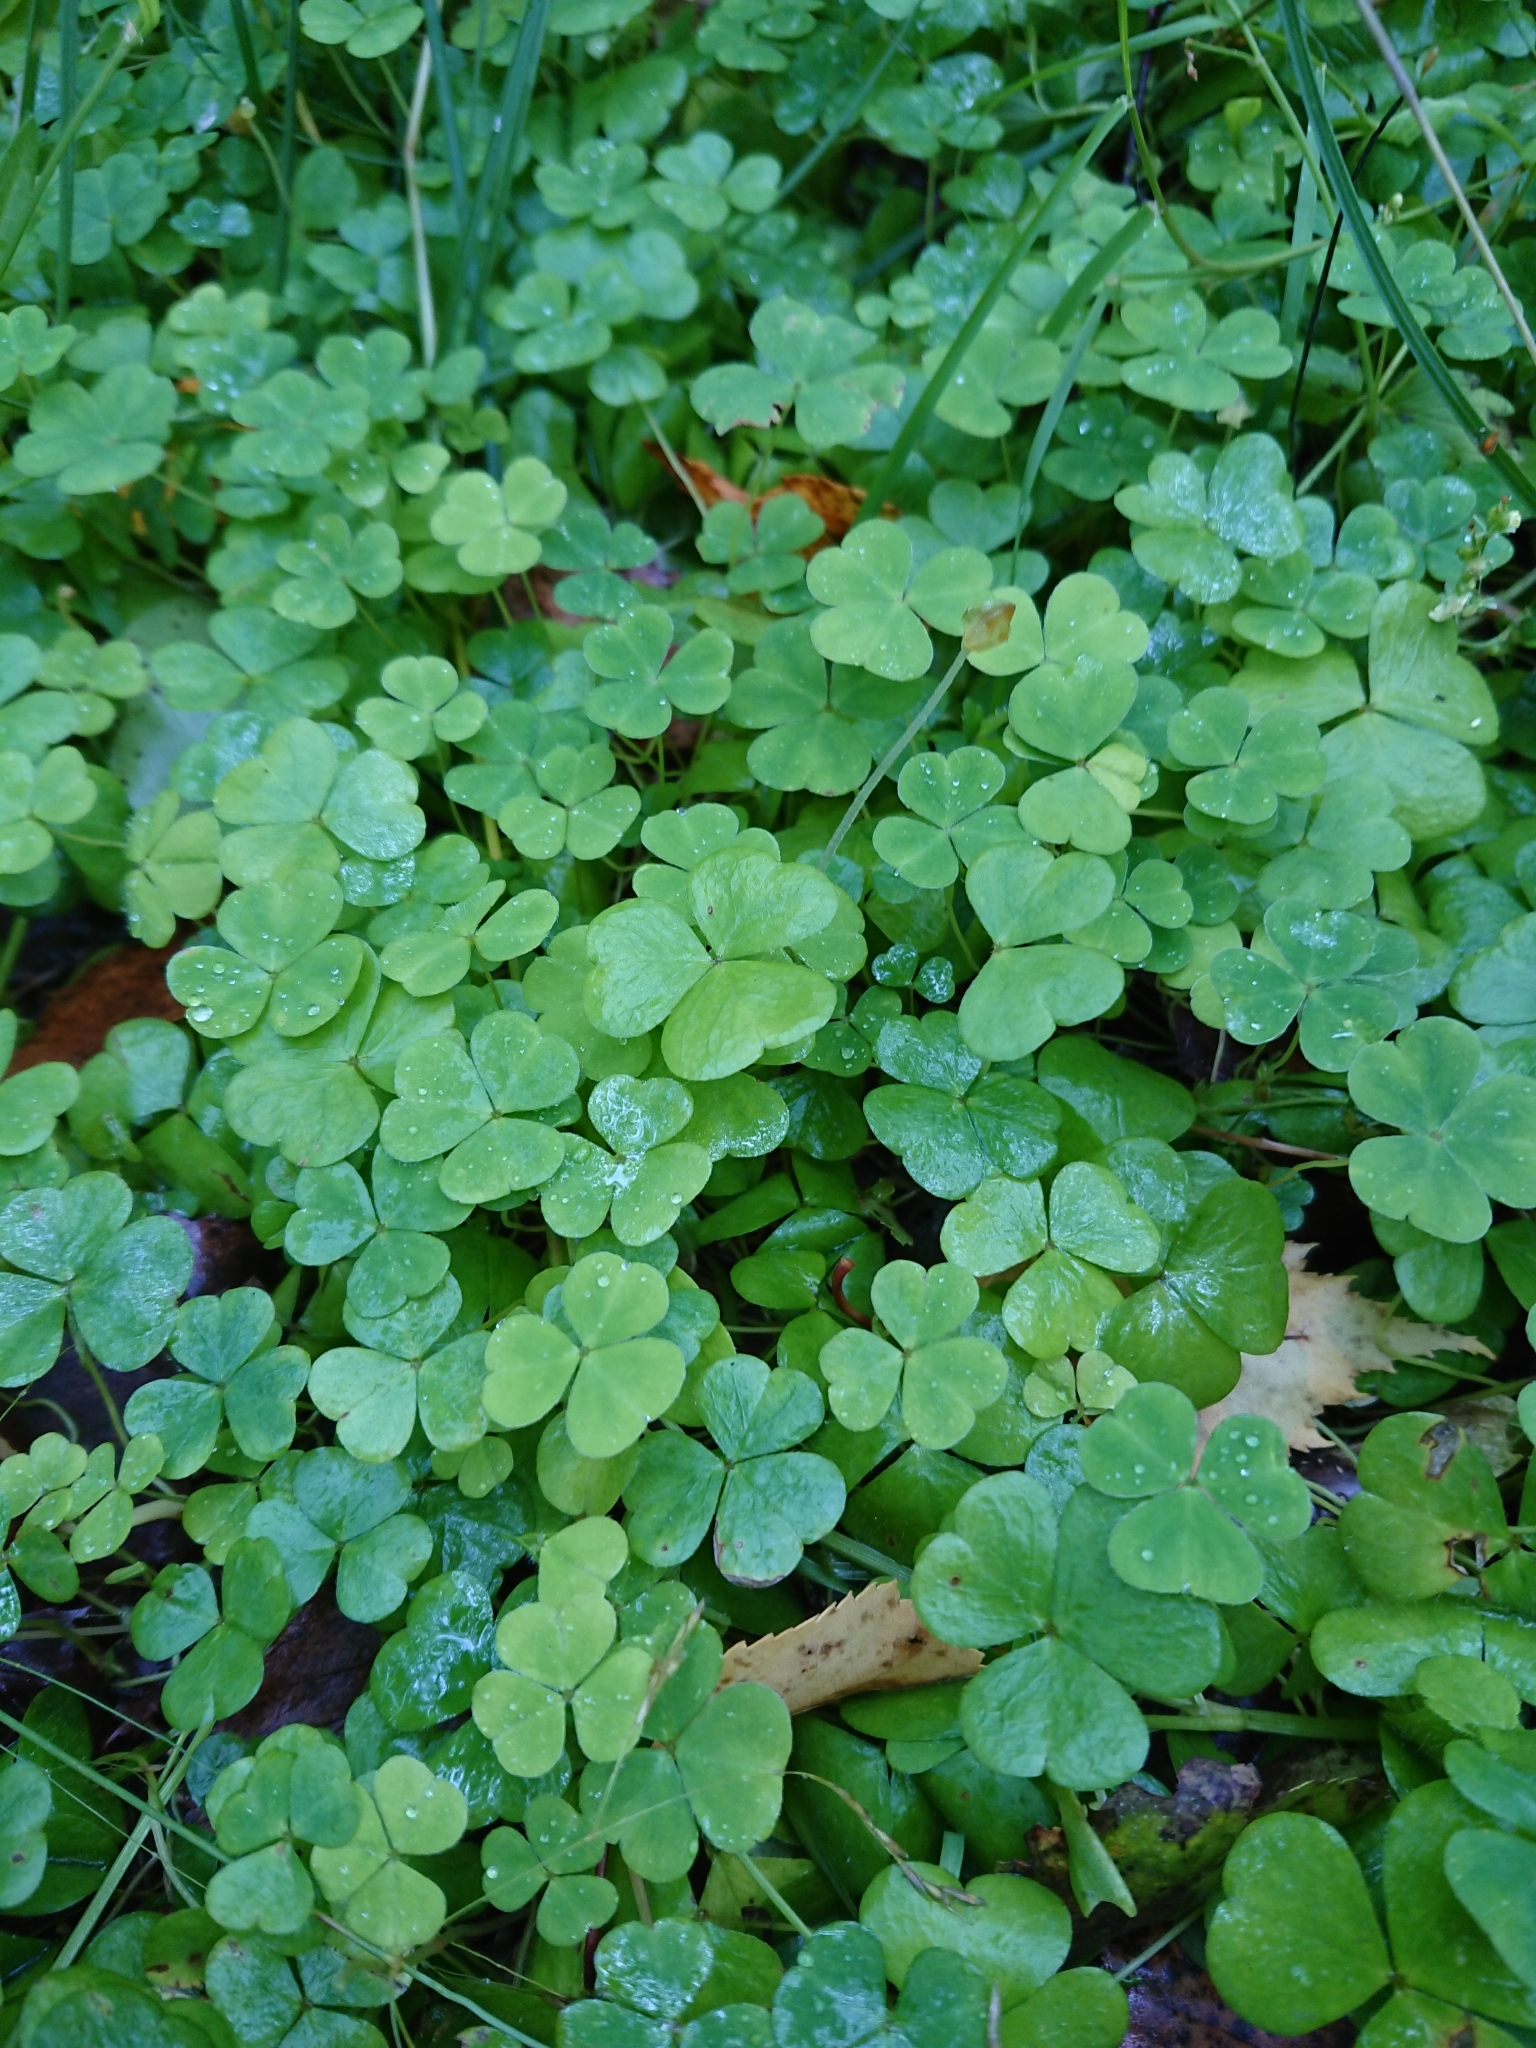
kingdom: Plantae
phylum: Tracheophyta
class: Magnoliopsida
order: Oxalidales
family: Oxalidaceae
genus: Oxalis
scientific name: Oxalis acetosella
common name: Wood-sorrel
